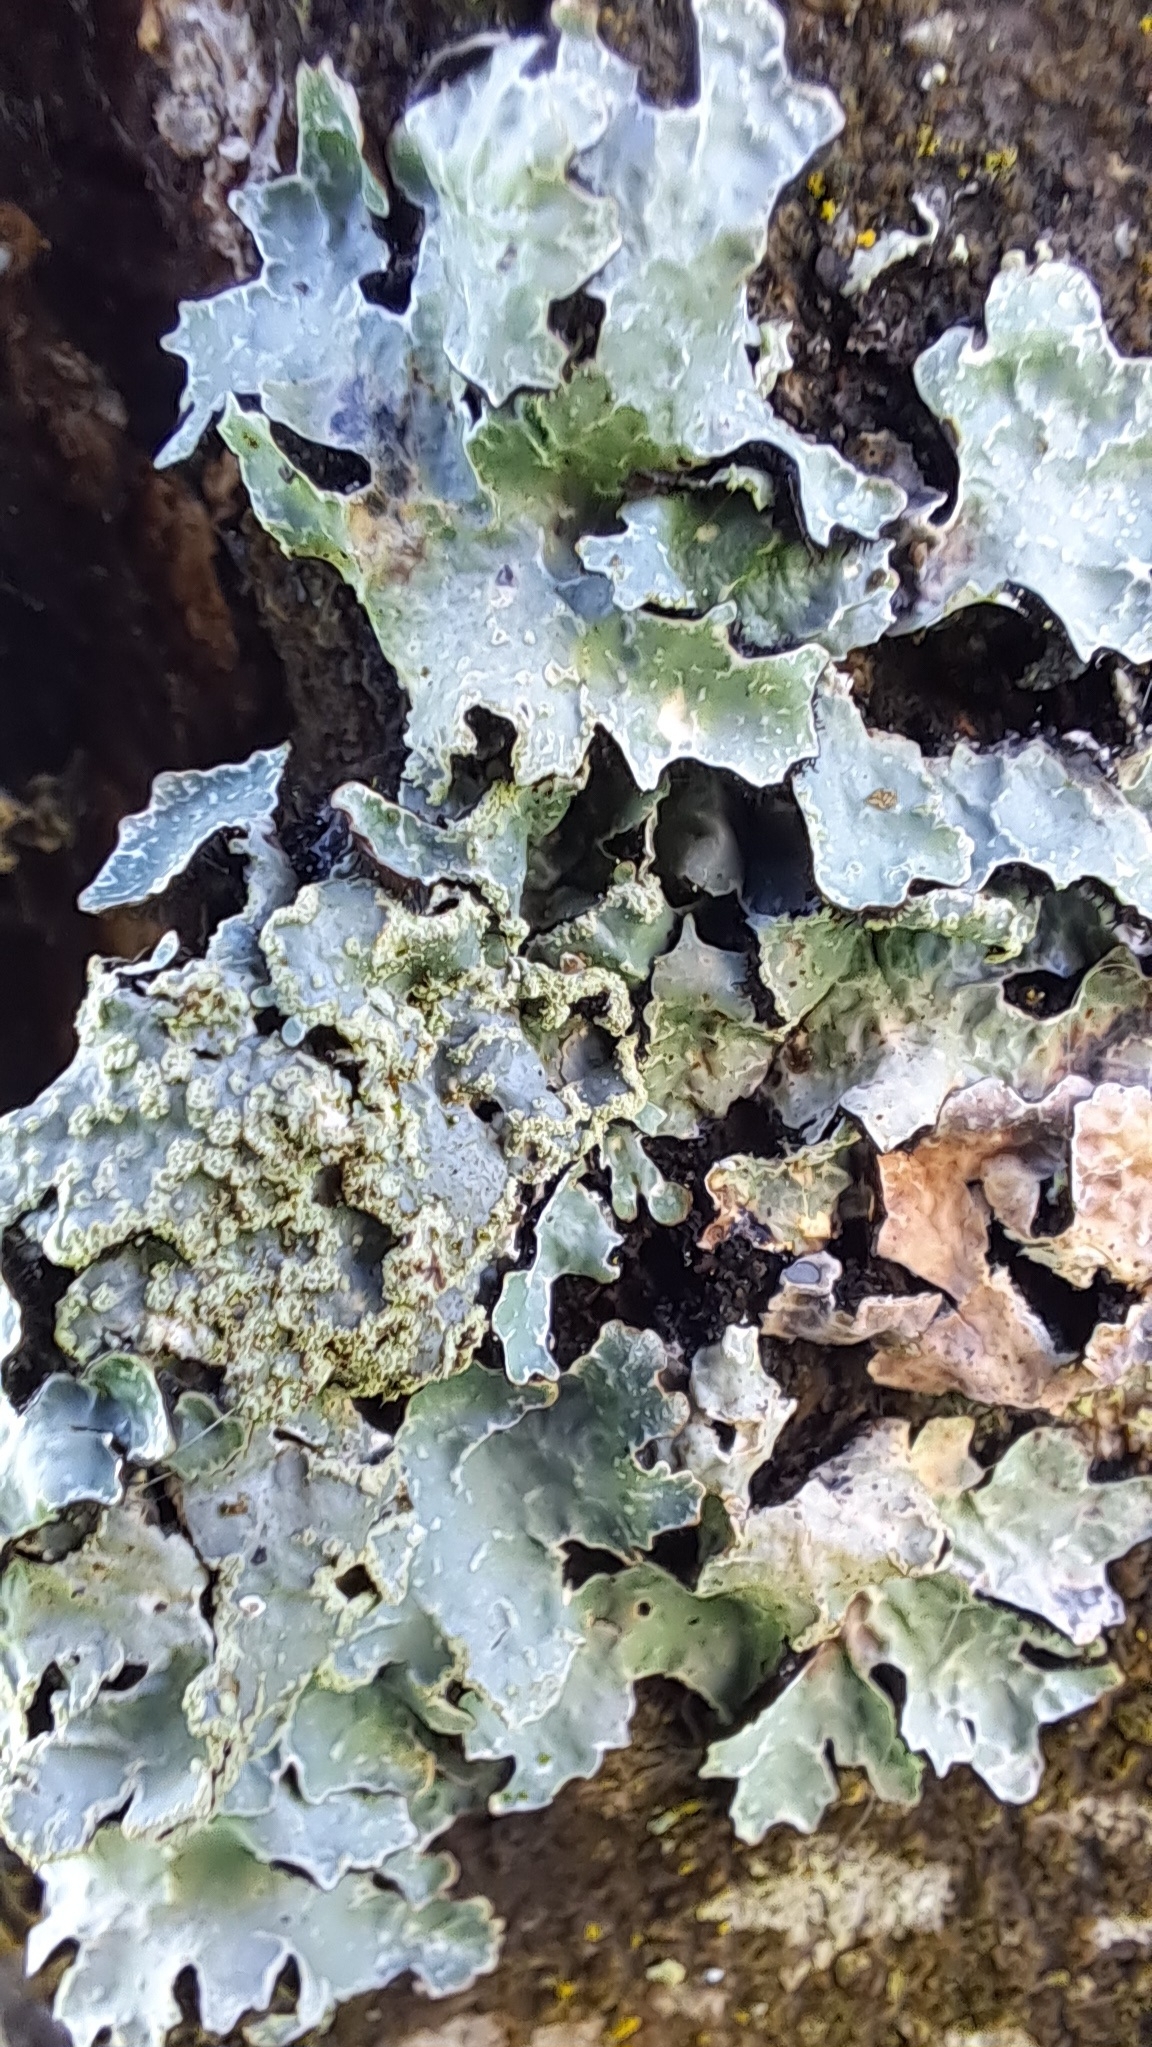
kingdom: Fungi
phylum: Ascomycota
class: Lecanoromycetes
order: Lecanorales
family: Parmeliaceae
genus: Parmelia
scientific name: Parmelia sulcata
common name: Netted shield lichen
